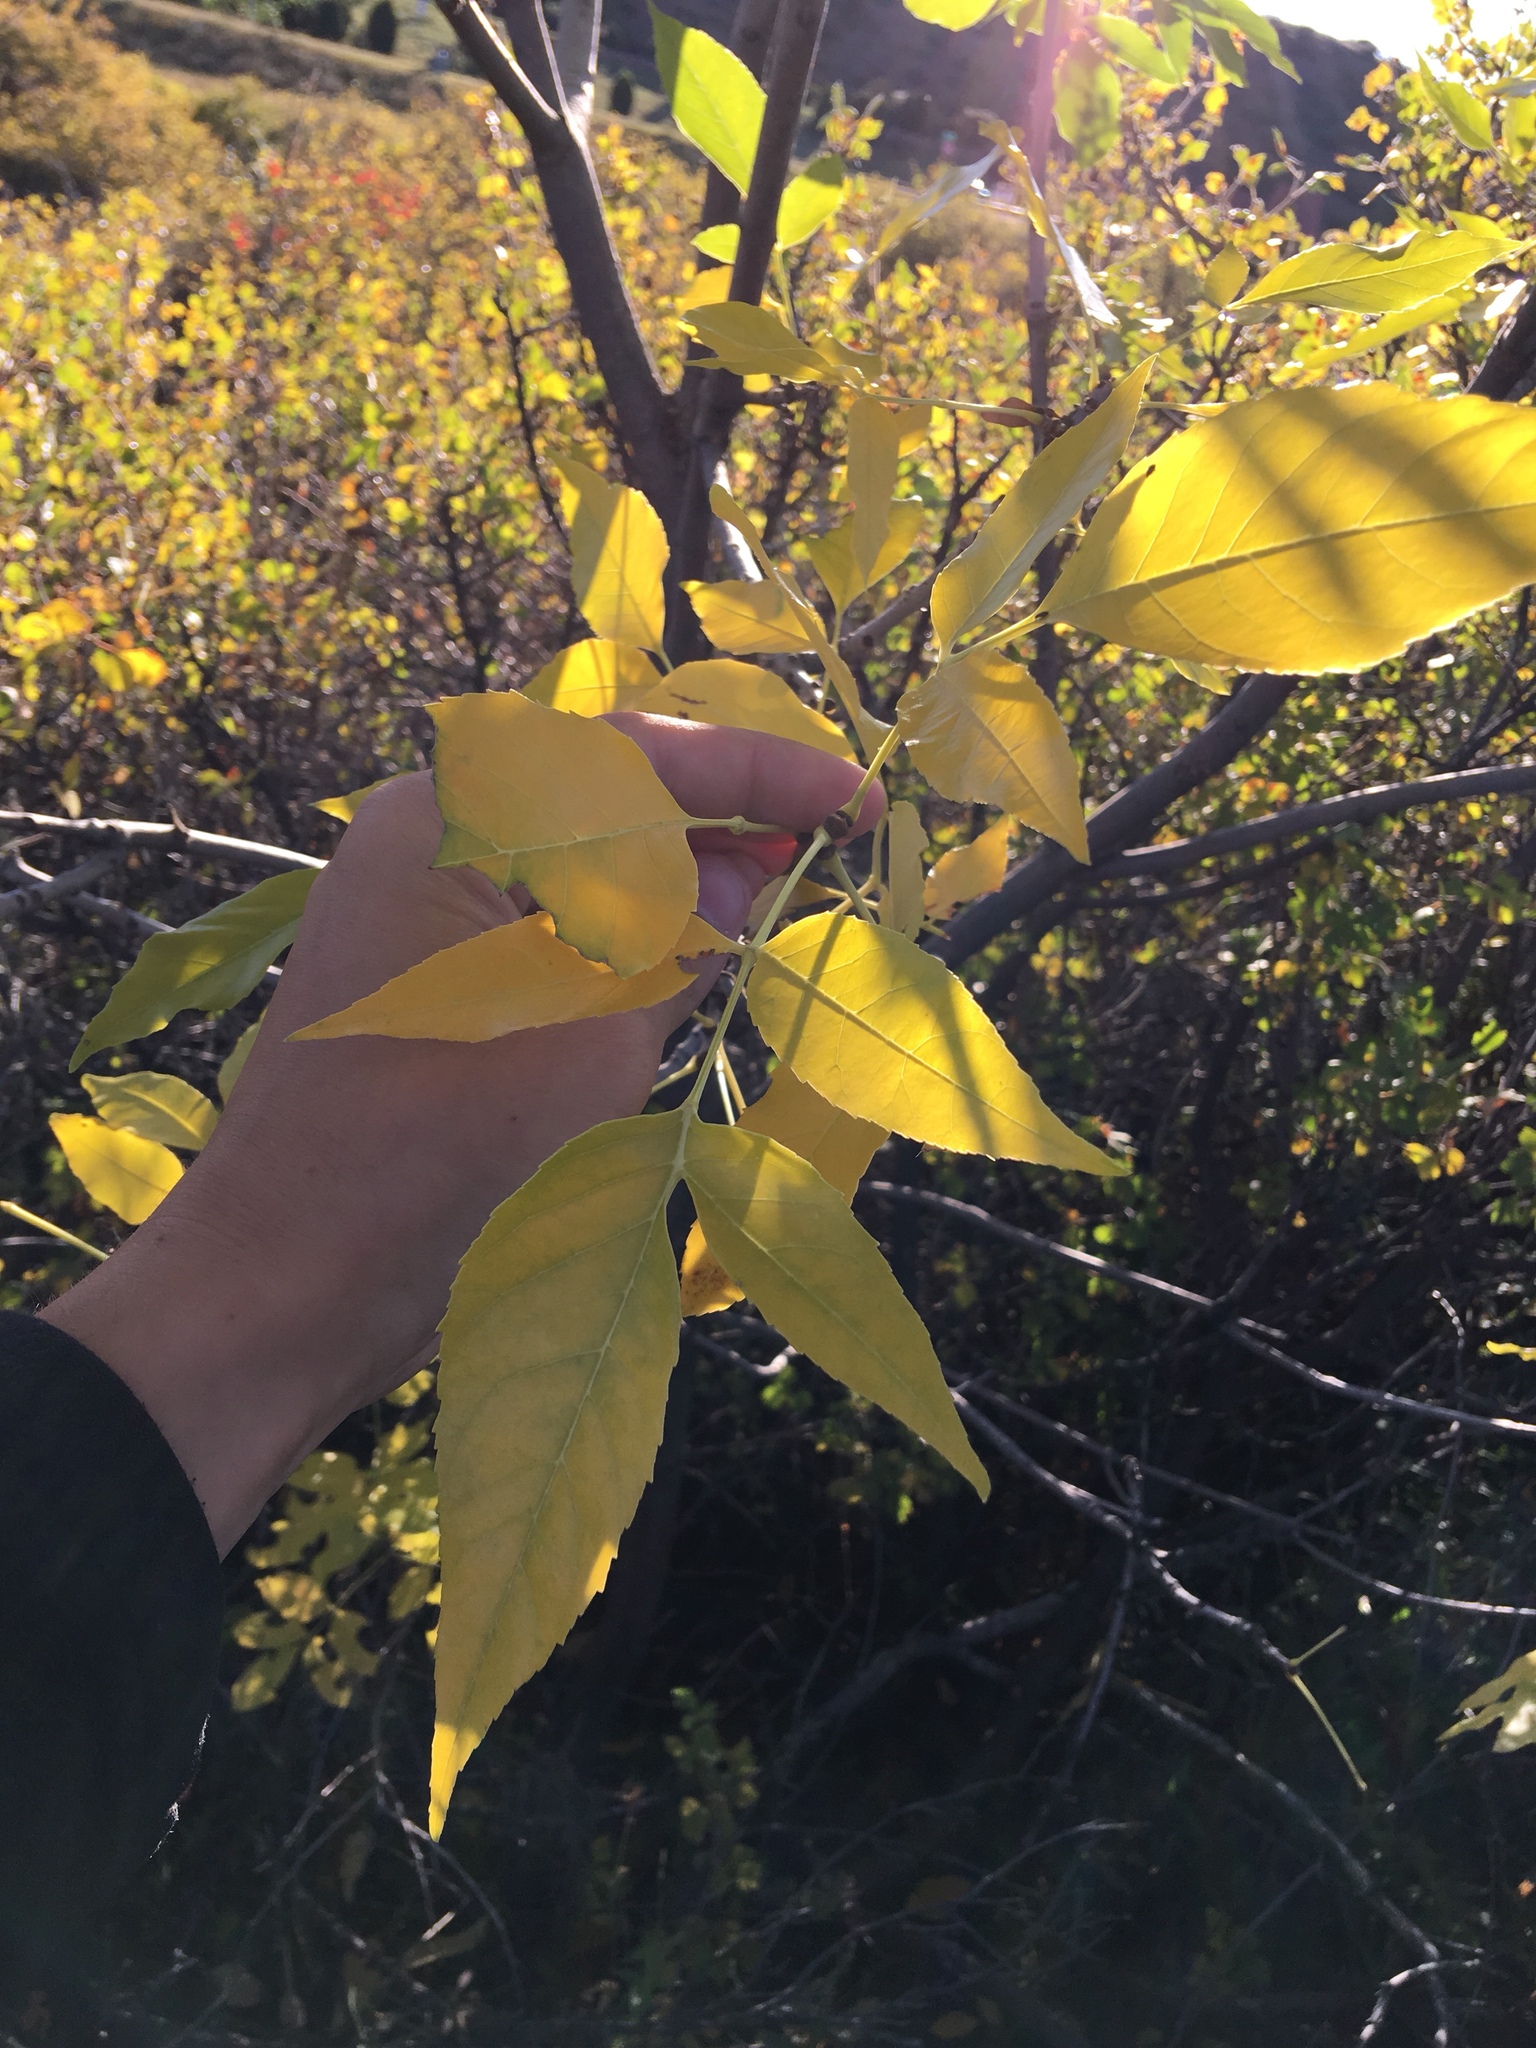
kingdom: Plantae
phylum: Tracheophyta
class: Magnoliopsida
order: Lamiales
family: Oleaceae
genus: Fraxinus
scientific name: Fraxinus pennsylvanica
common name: Green ash
